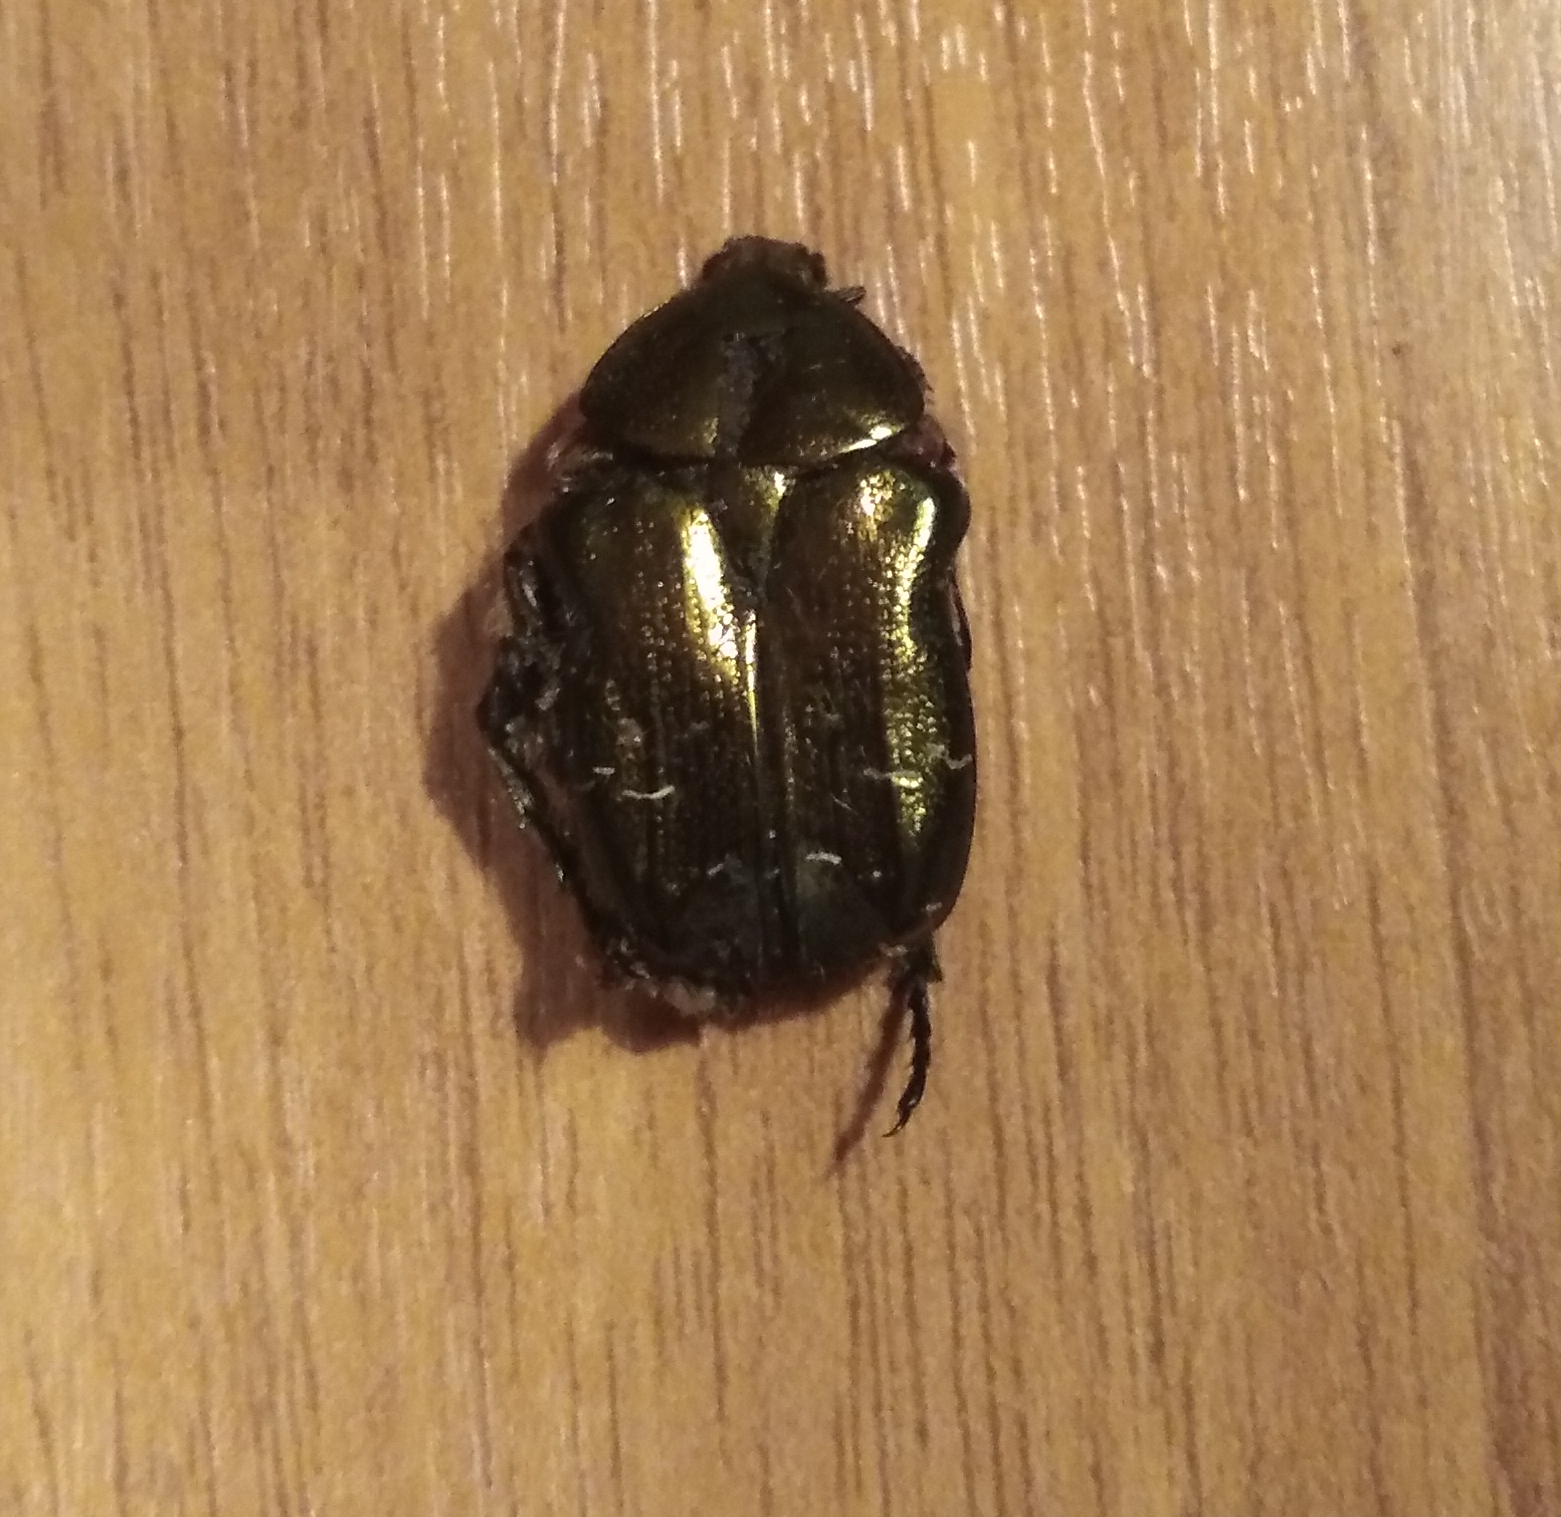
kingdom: Animalia
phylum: Arthropoda
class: Insecta
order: Coleoptera
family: Scarabaeidae
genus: Cetonia
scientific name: Cetonia aurata
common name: Rose chafer
